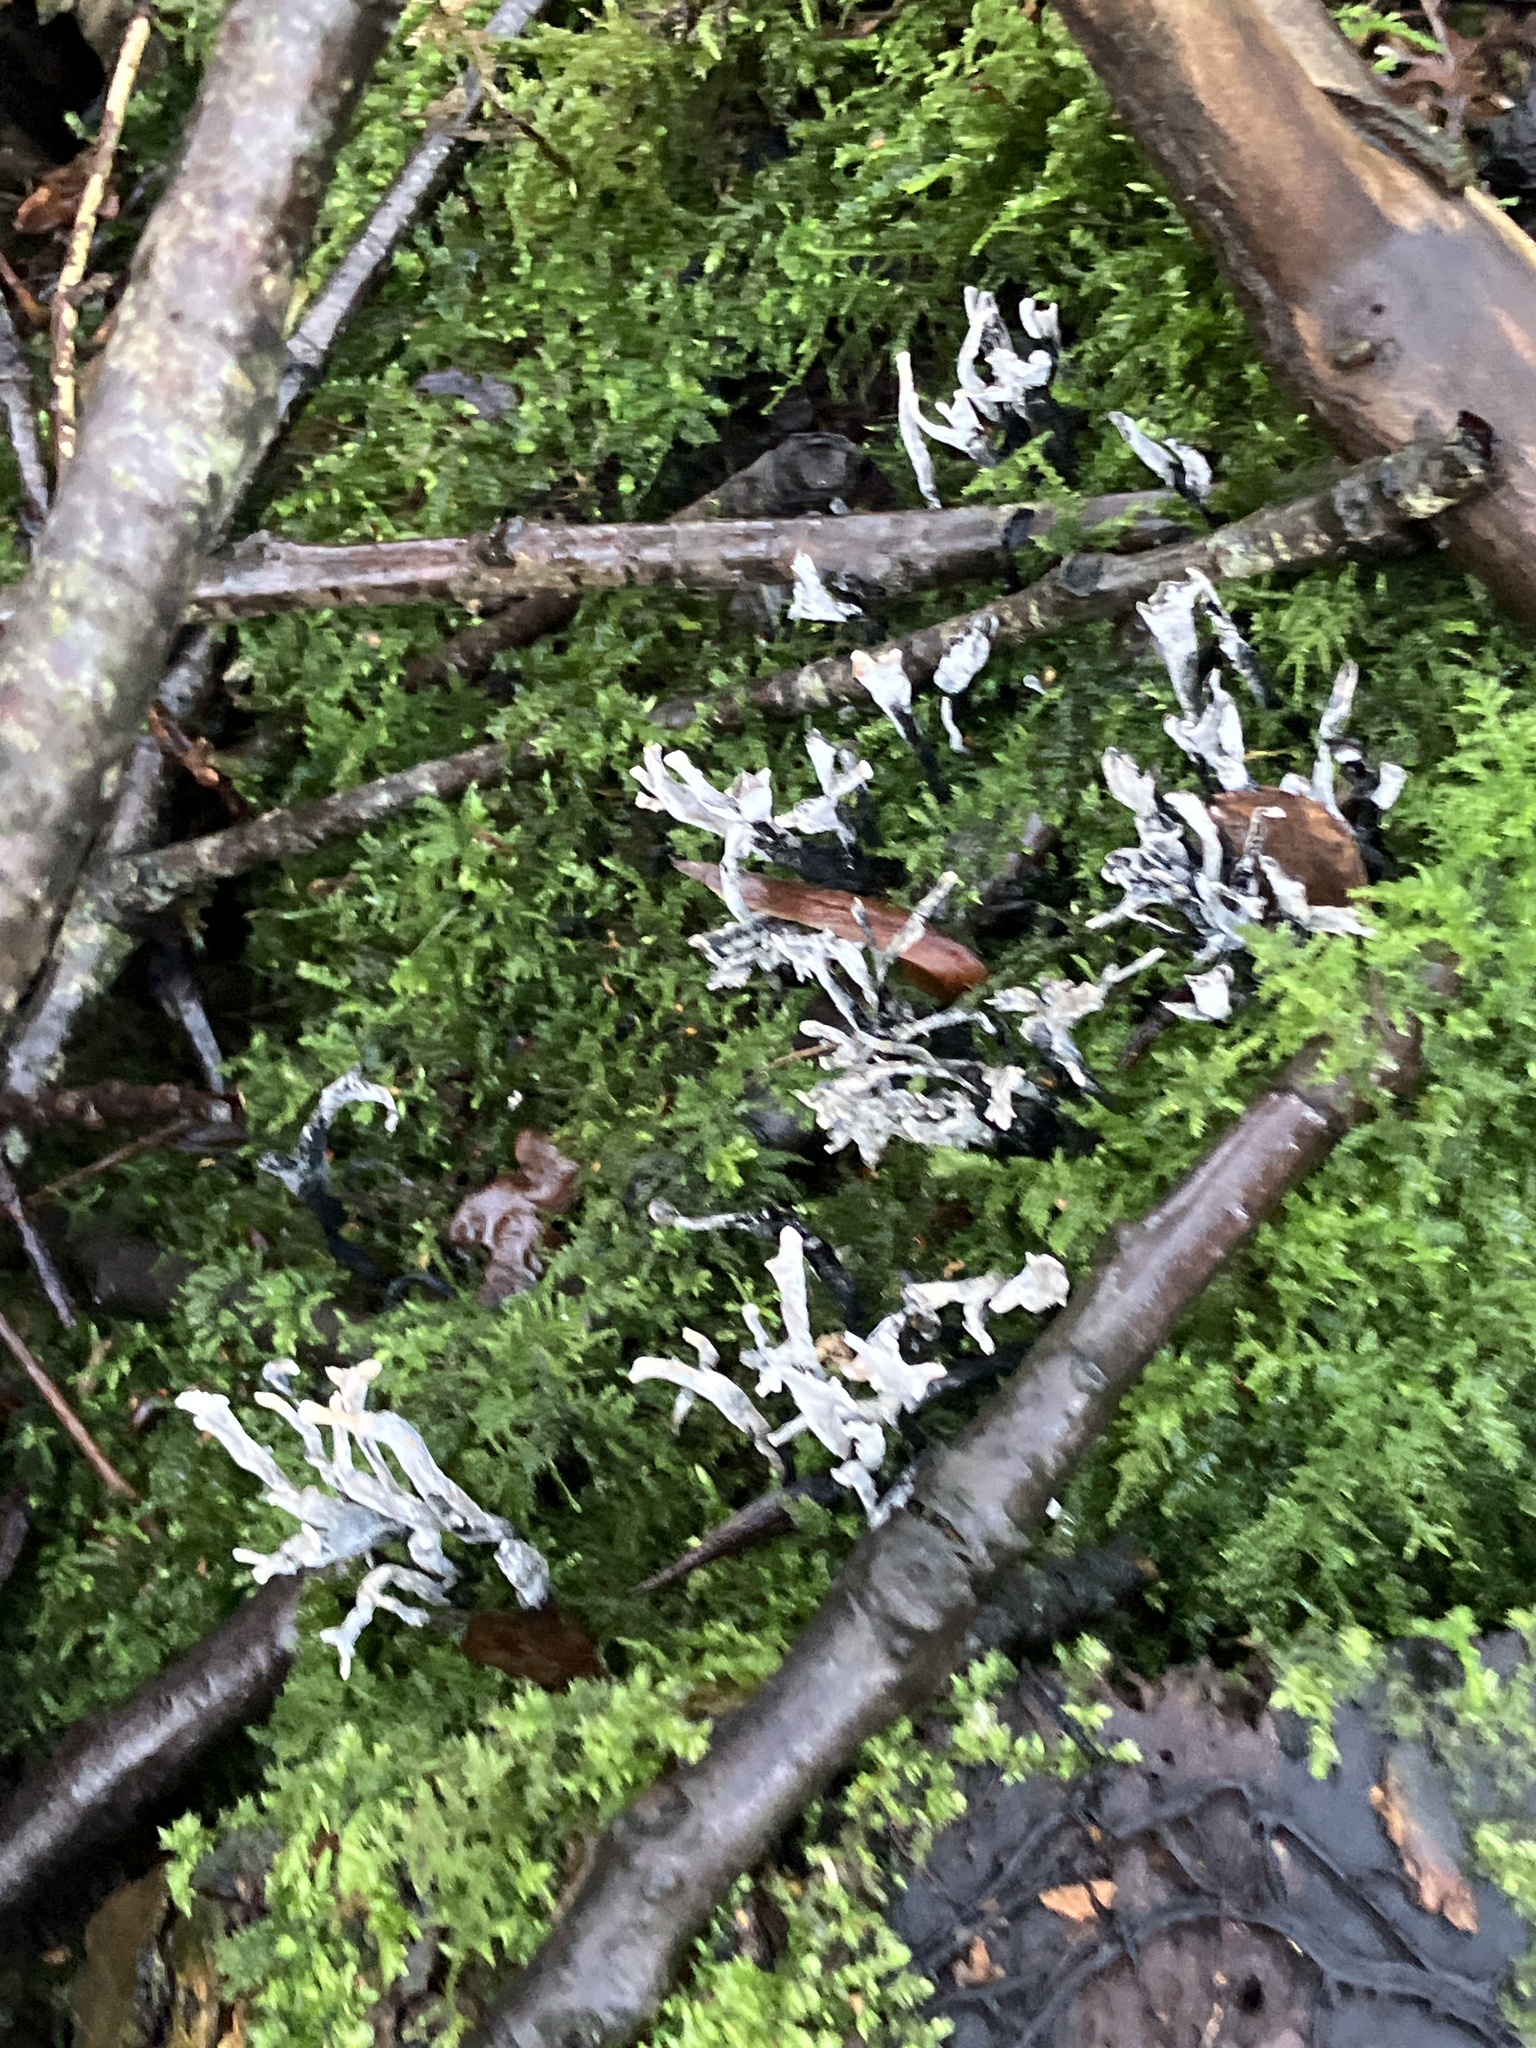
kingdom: Fungi
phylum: Ascomycota
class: Sordariomycetes
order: Xylariales
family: Xylariaceae
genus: Xylaria
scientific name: Xylaria hypoxylon
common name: Candle-snuff fungus
